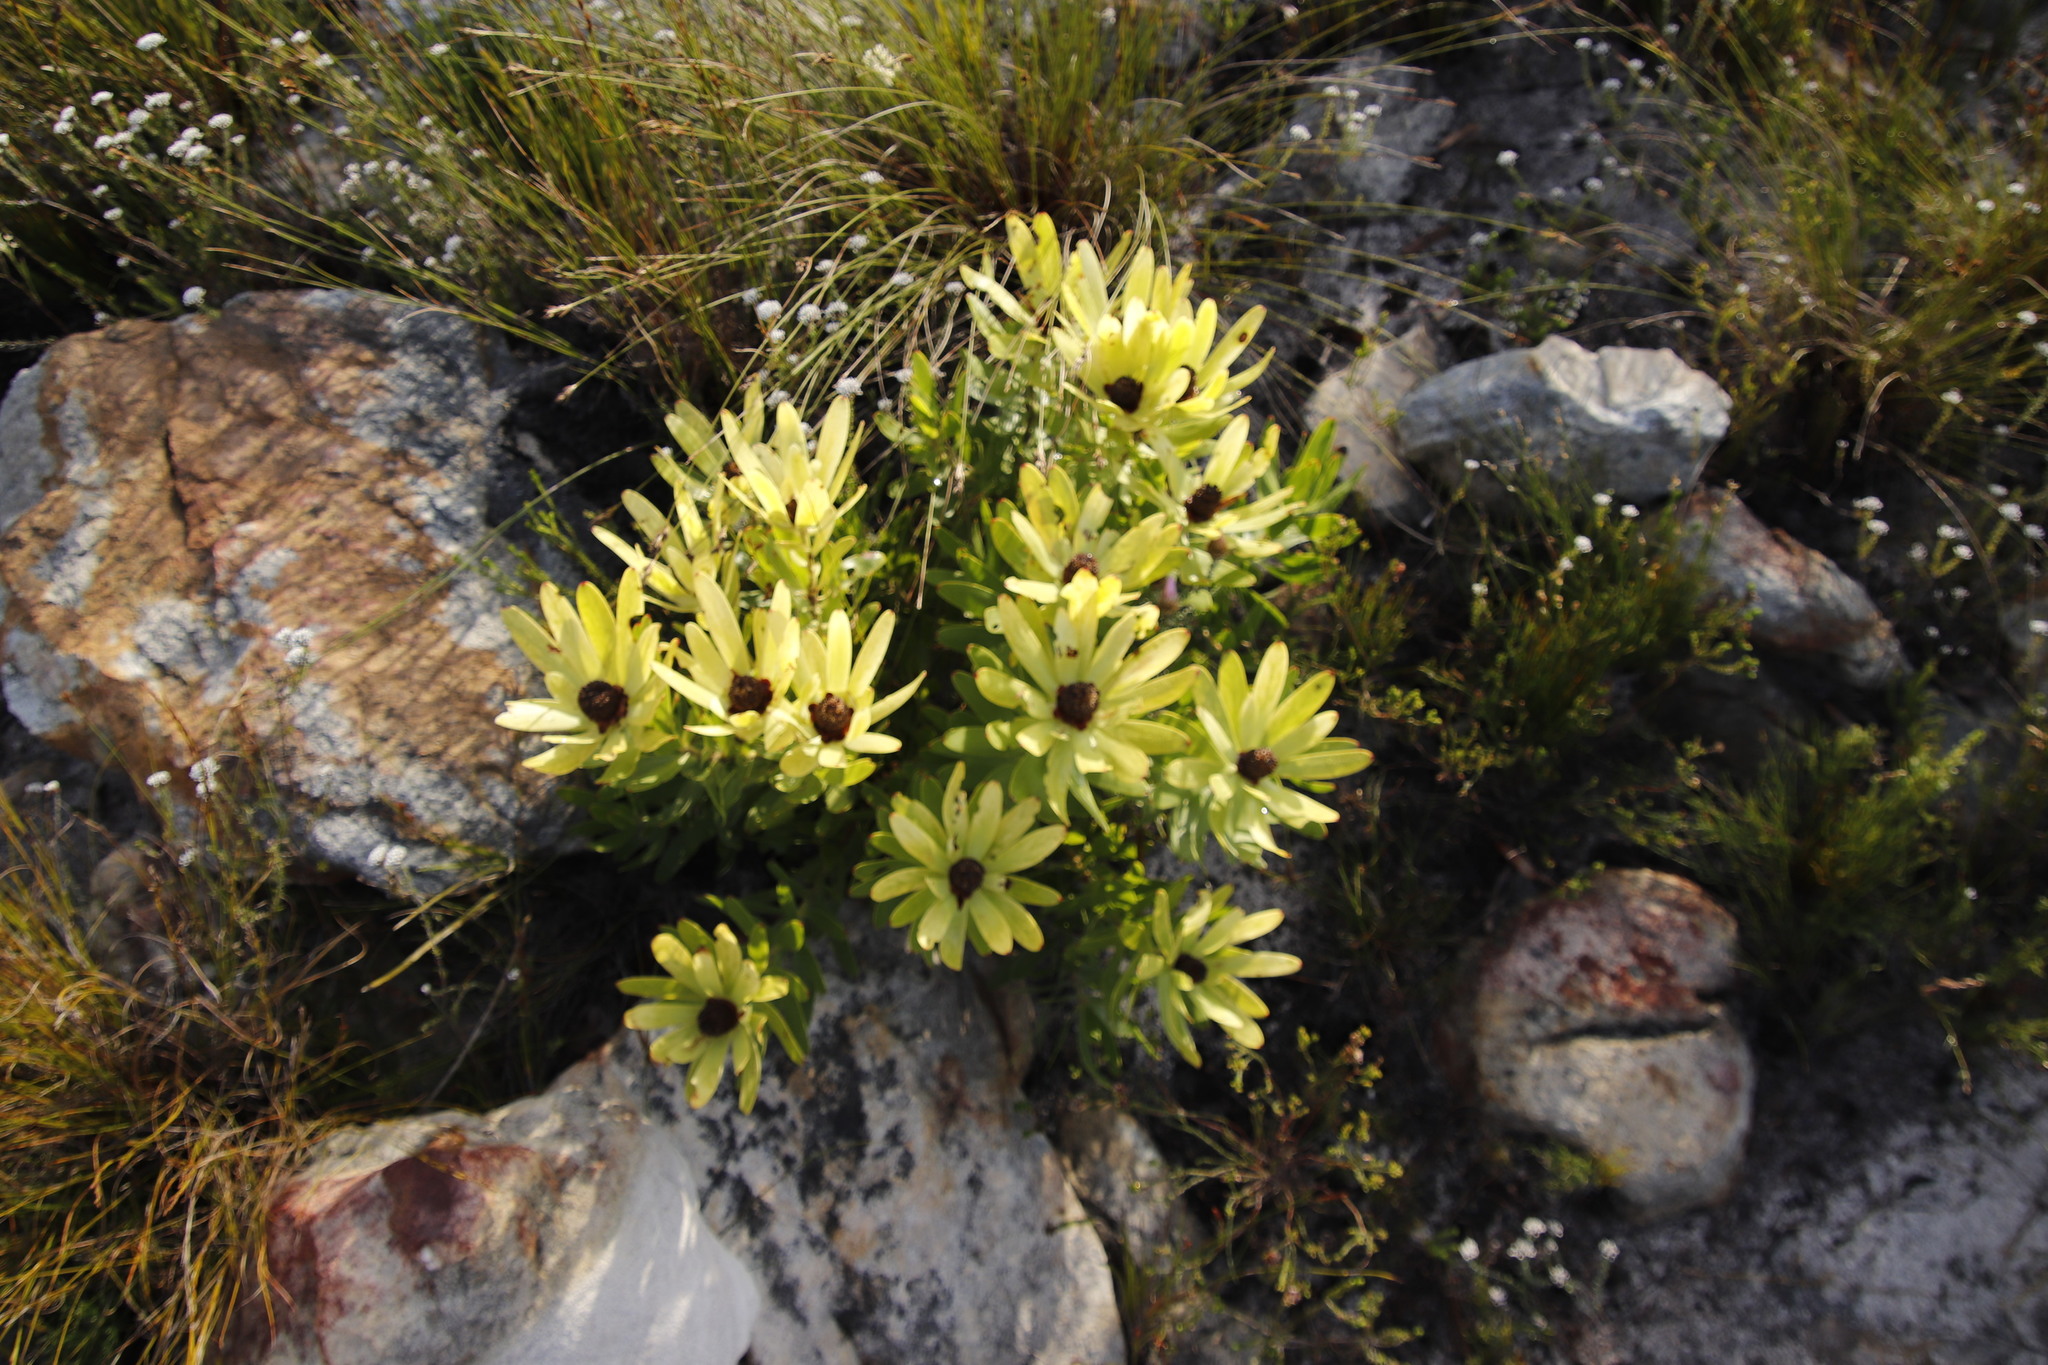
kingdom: Plantae
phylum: Tracheophyta
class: Magnoliopsida
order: Proteales
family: Proteaceae
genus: Leucadendron
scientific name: Leucadendron microcephalum
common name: Oilbract conebush
